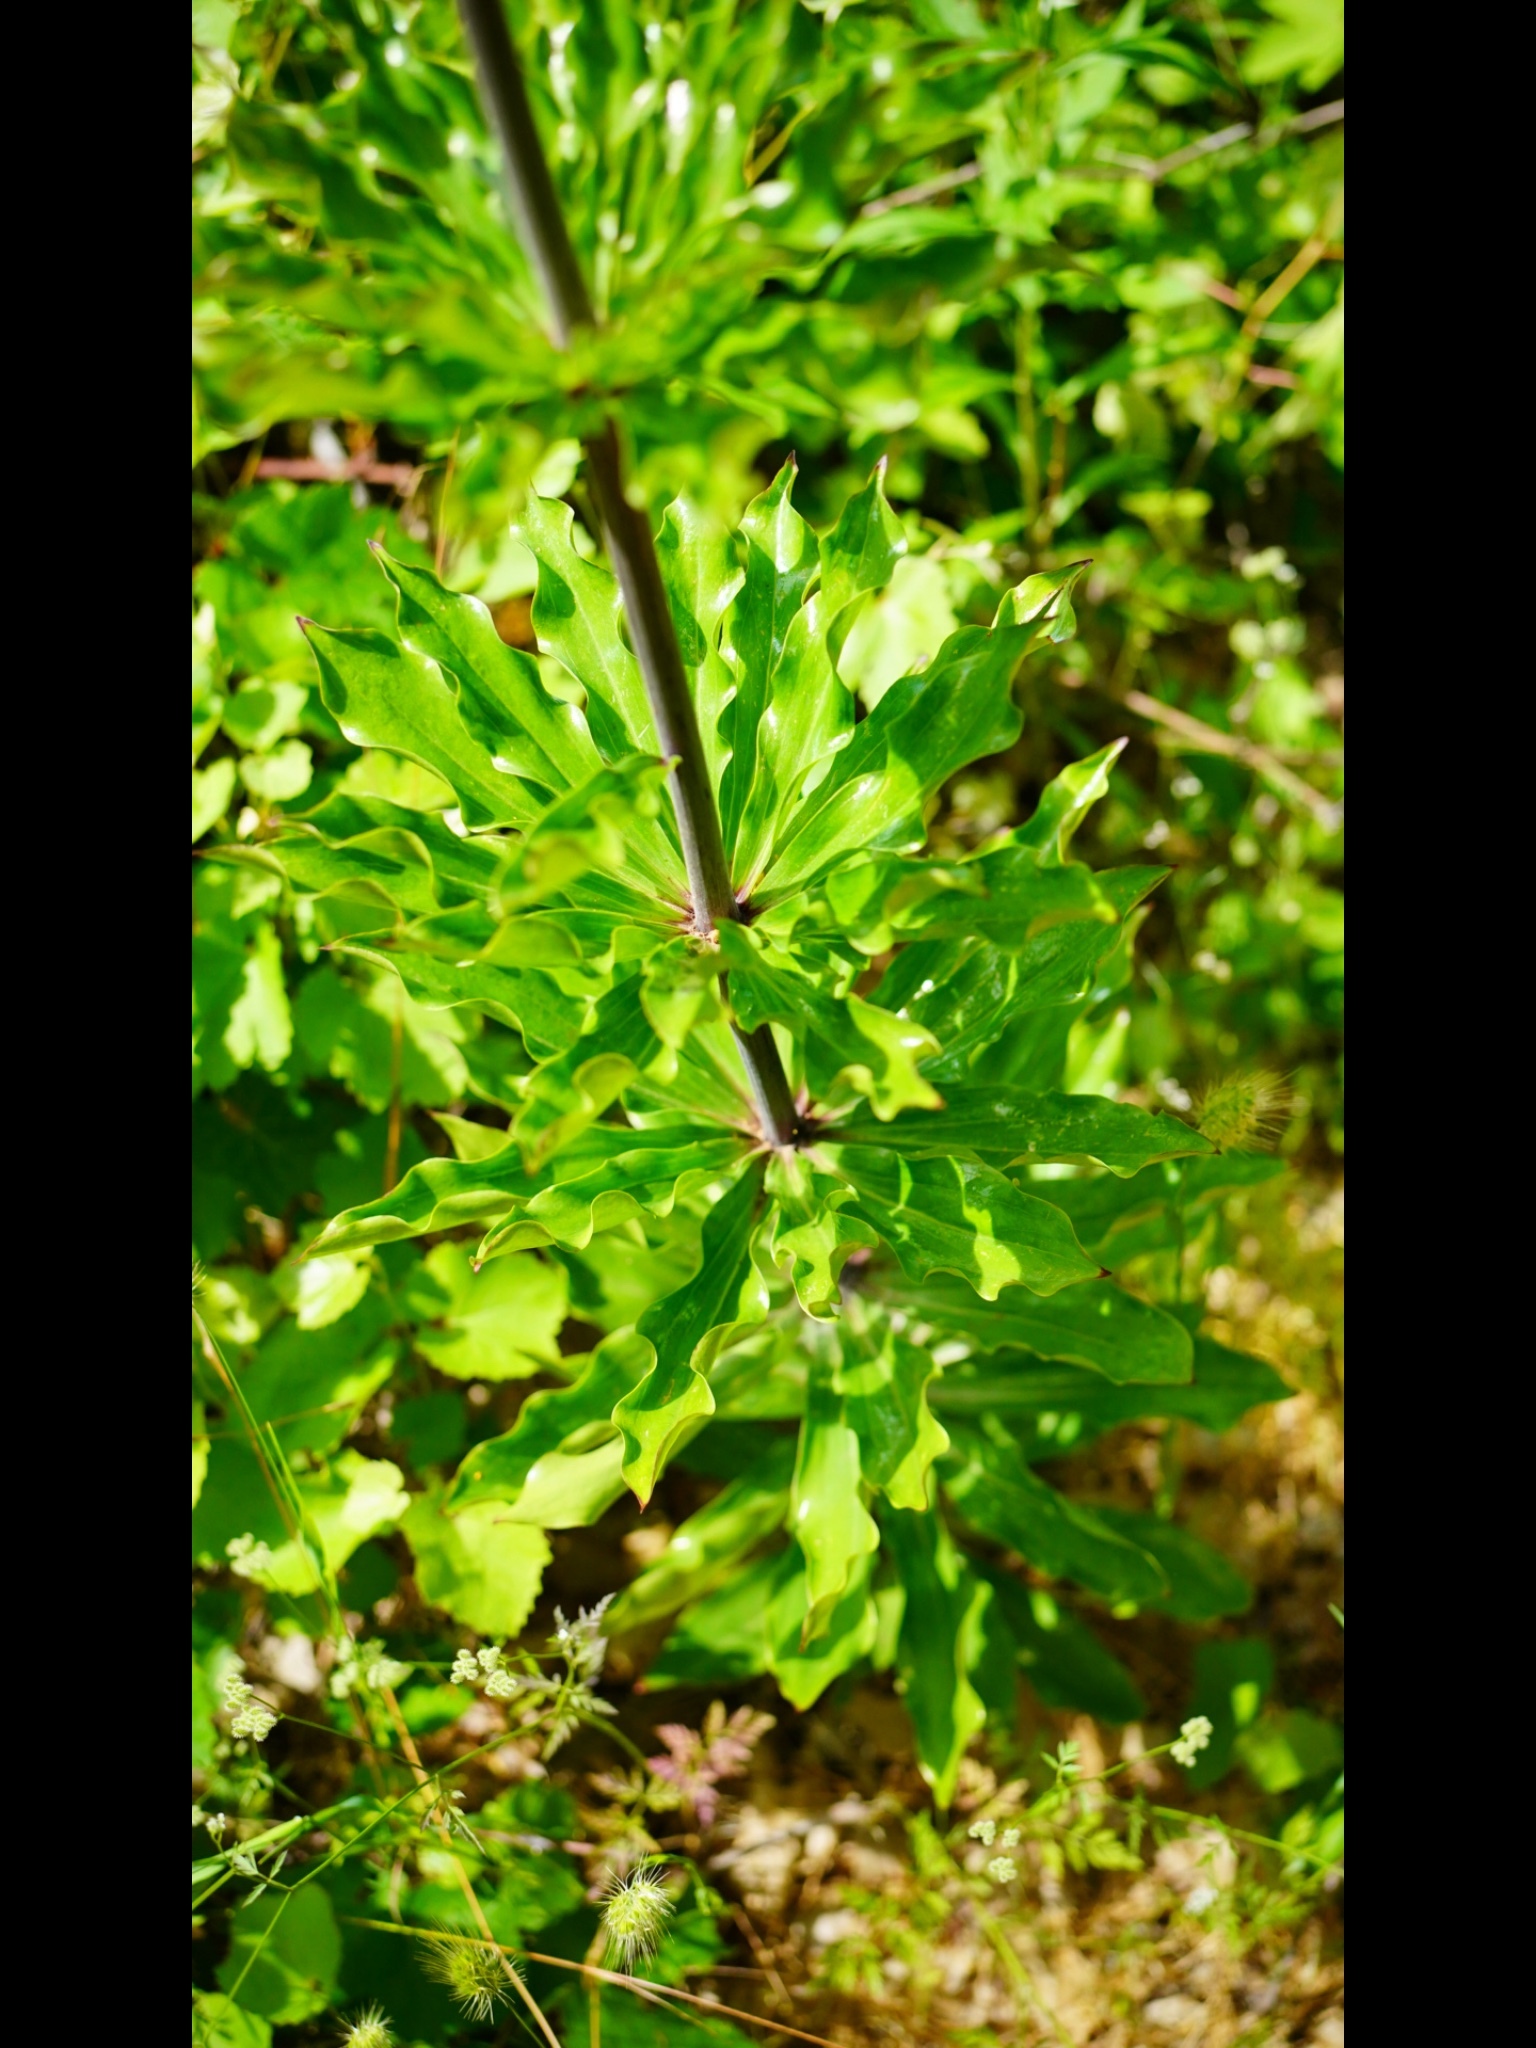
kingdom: Plantae
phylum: Tracheophyta
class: Liliopsida
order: Liliales
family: Liliaceae
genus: Lilium
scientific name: Lilium humboldtii
